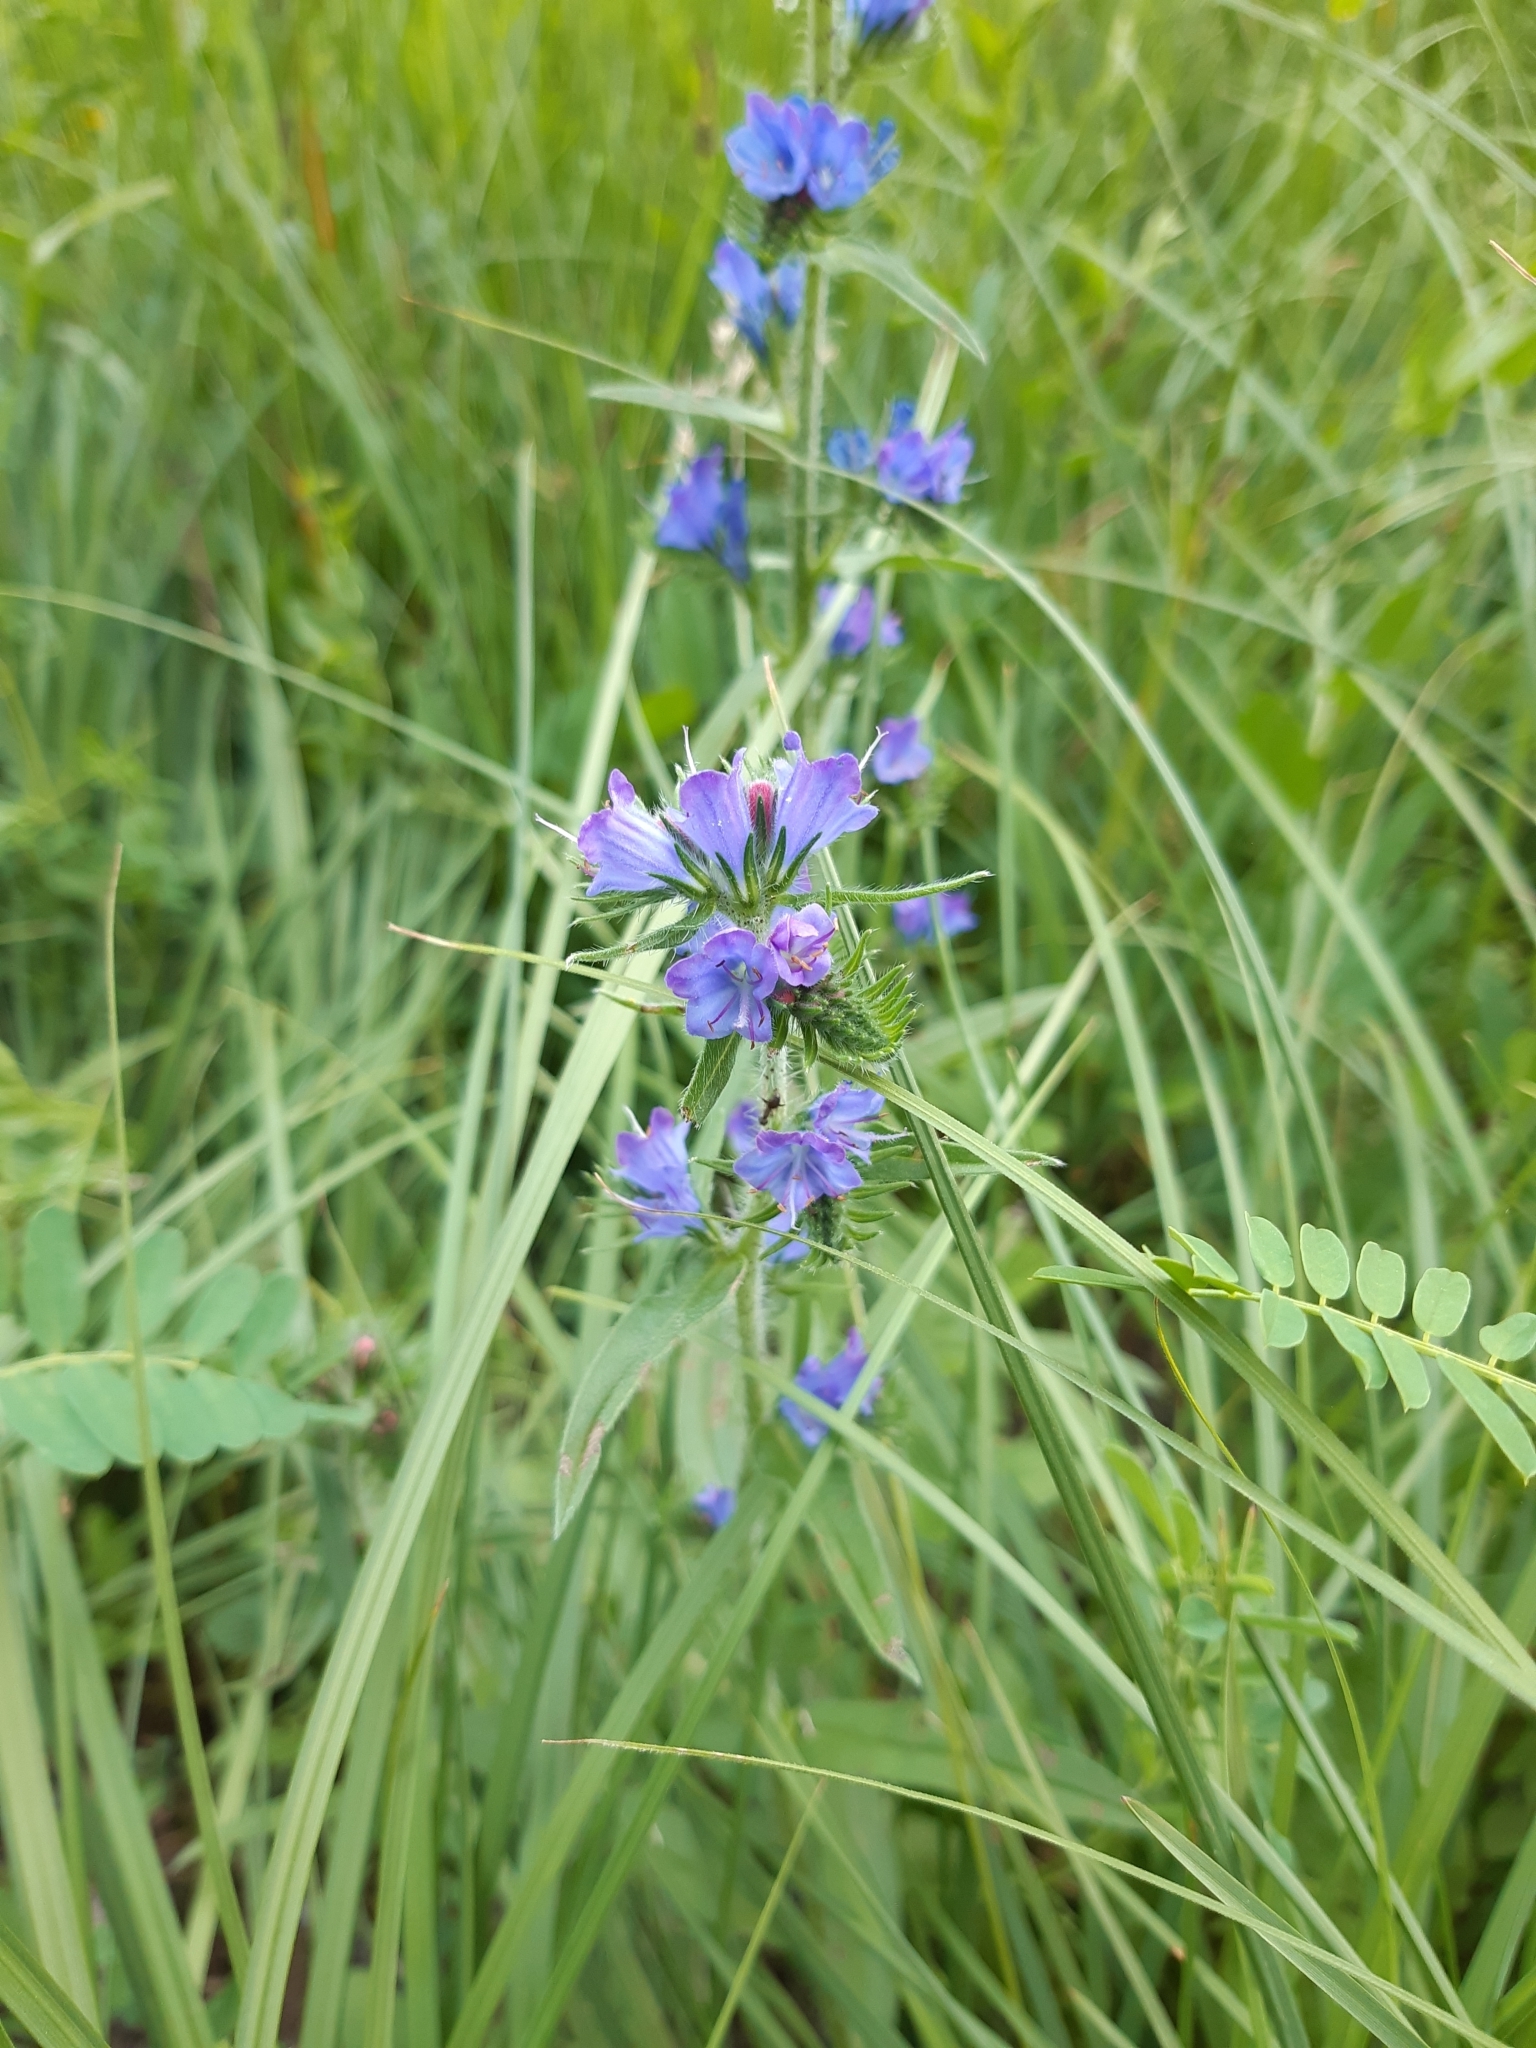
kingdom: Plantae
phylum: Tracheophyta
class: Magnoliopsida
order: Boraginales
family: Boraginaceae
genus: Echium
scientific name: Echium vulgare
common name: Common viper's bugloss
